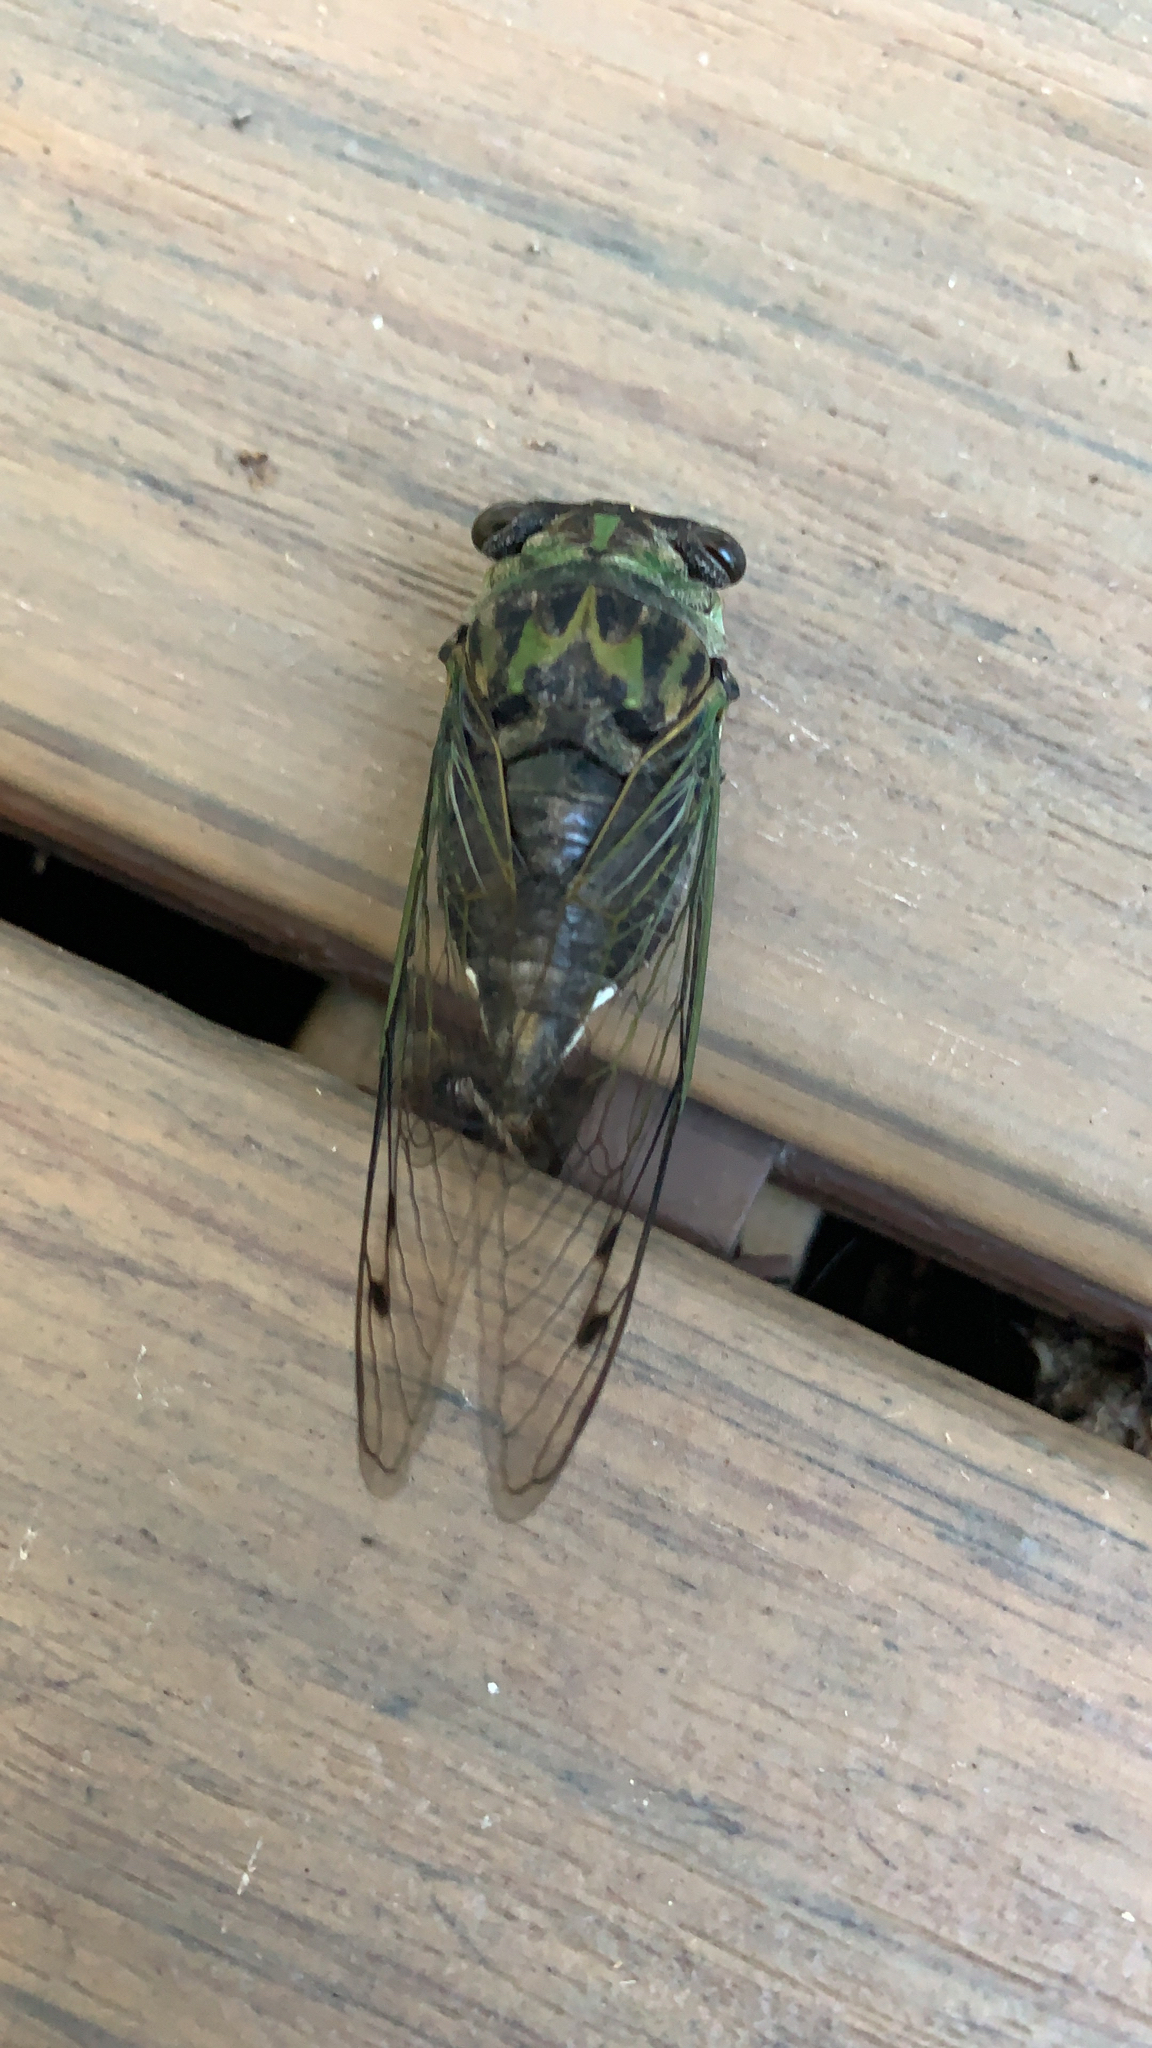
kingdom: Animalia
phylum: Arthropoda
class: Insecta
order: Hemiptera
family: Cicadidae
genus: Neotibicen
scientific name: Neotibicen
